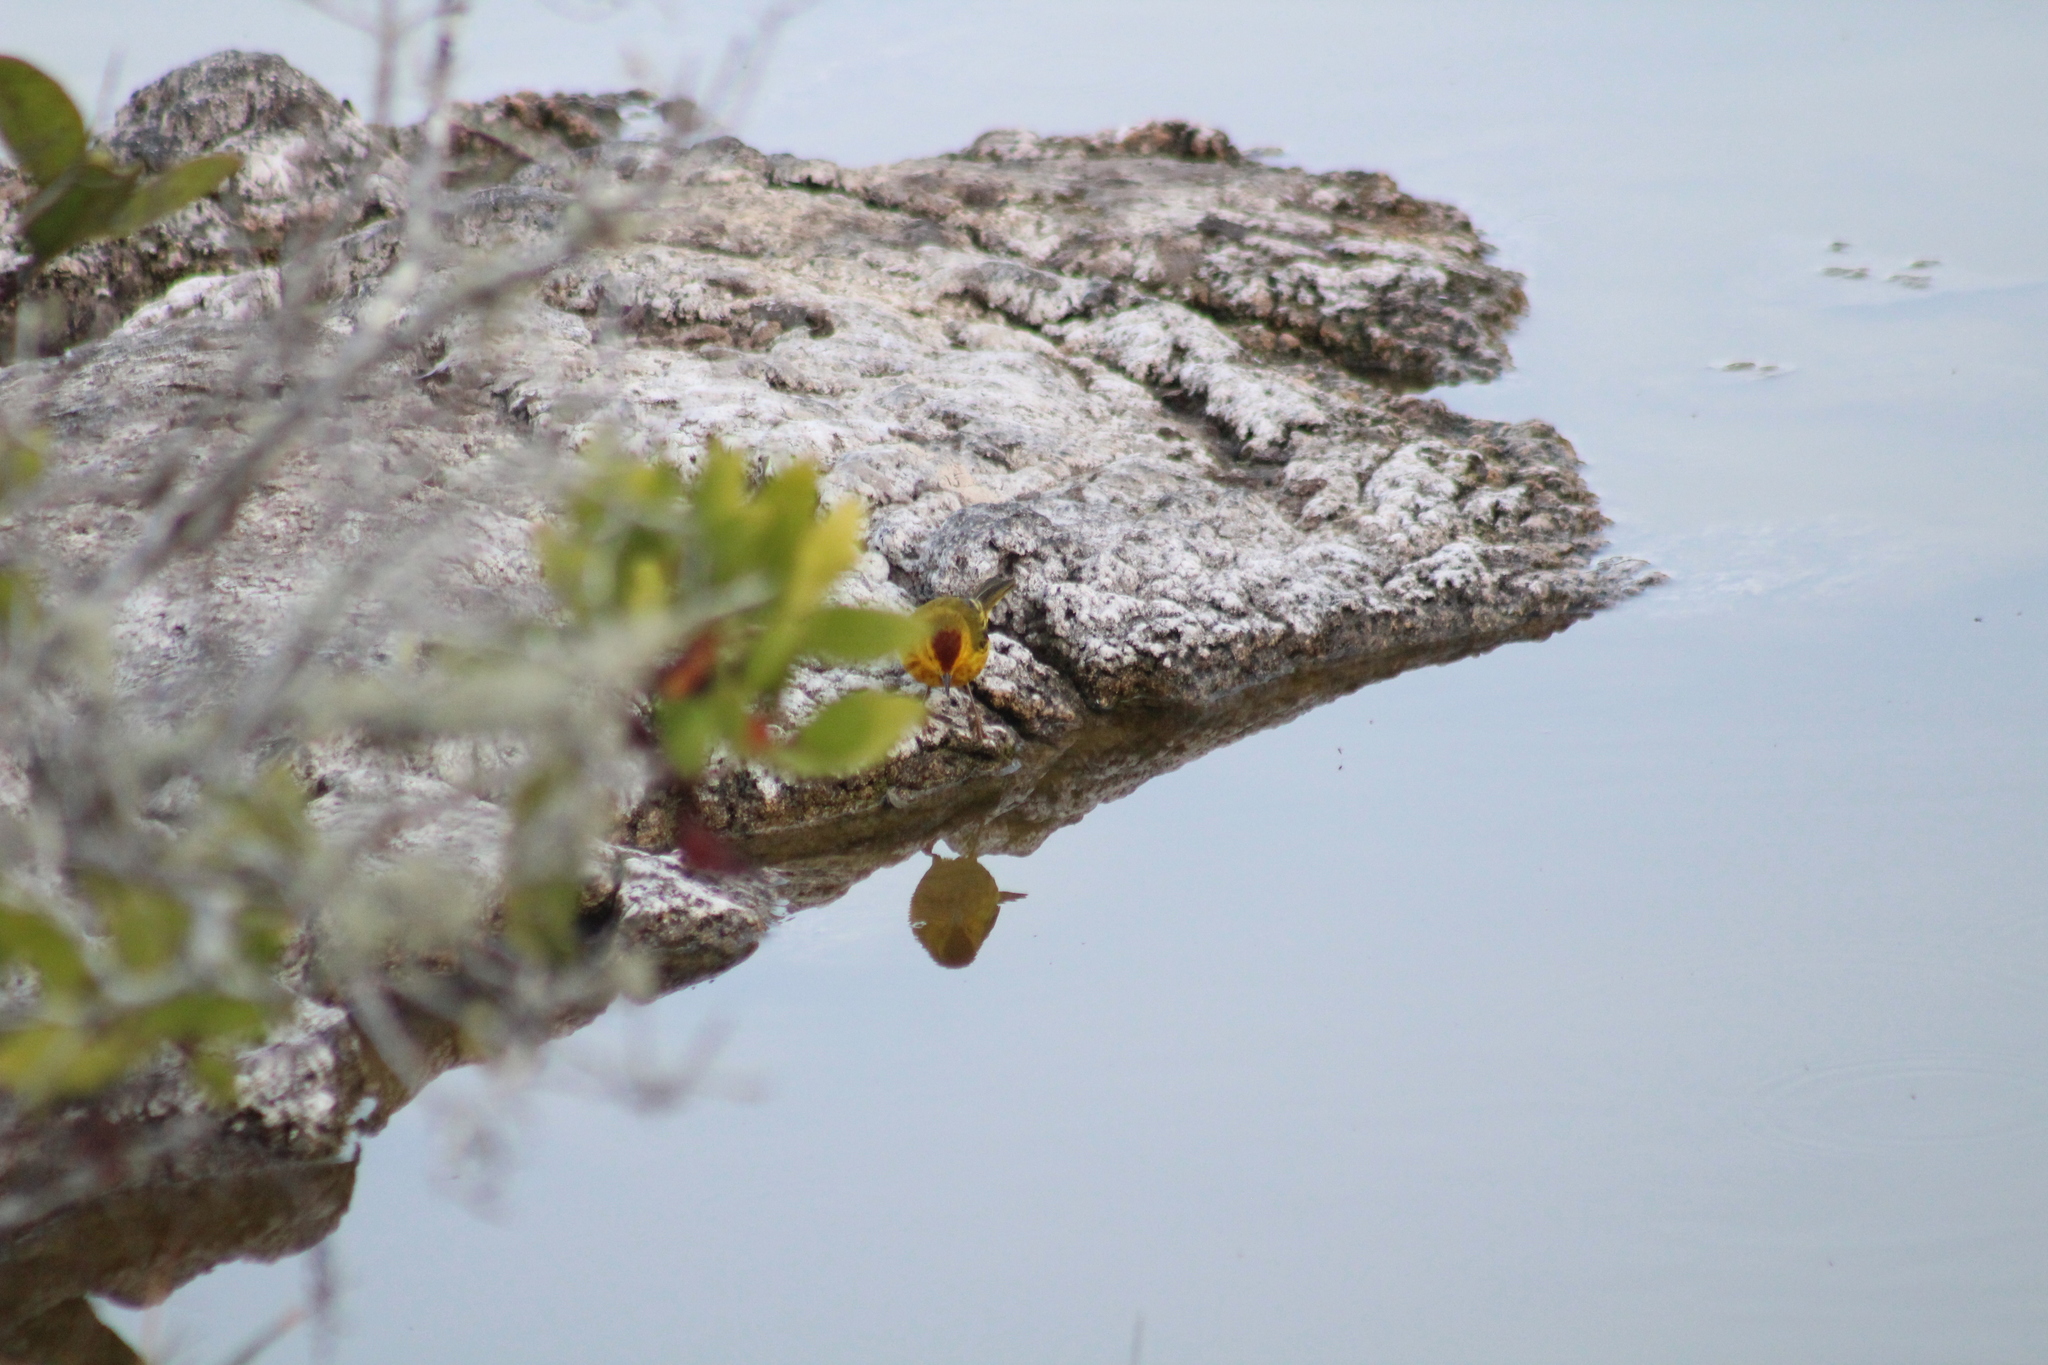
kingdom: Animalia
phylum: Chordata
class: Aves
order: Passeriformes
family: Parulidae
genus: Setophaga
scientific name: Setophaga petechia
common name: Yellow warbler
